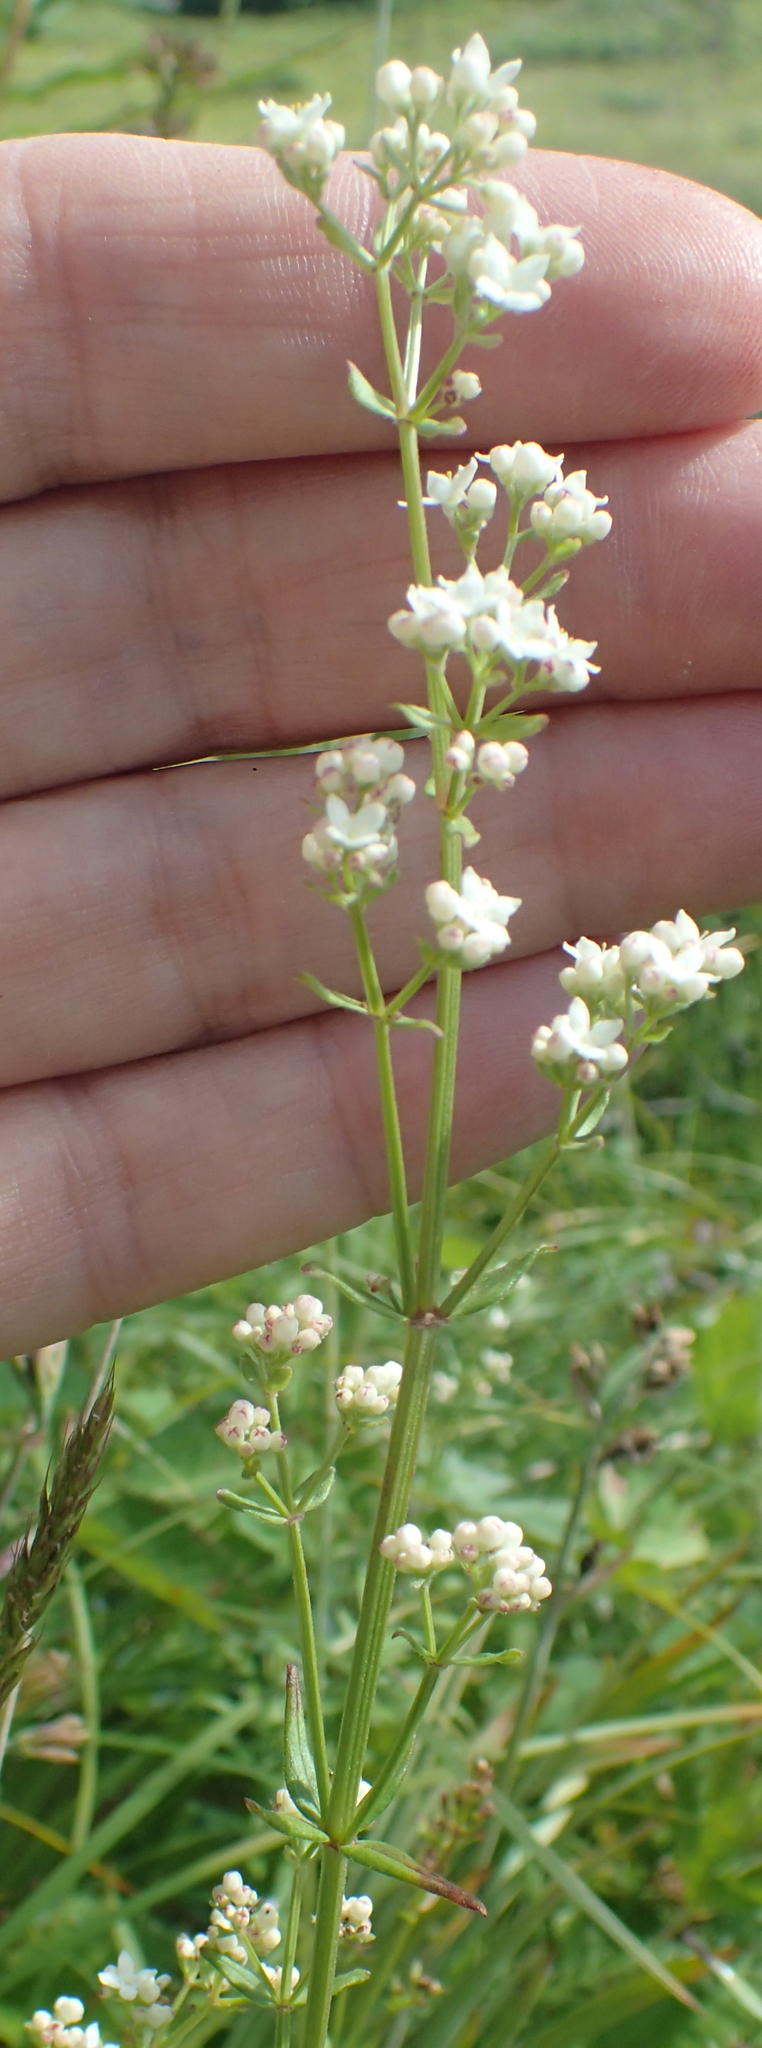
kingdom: Plantae
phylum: Tracheophyta
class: Magnoliopsida
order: Gentianales
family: Rubiaceae
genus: Galium
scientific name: Galium boreale
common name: Northern bedstraw
